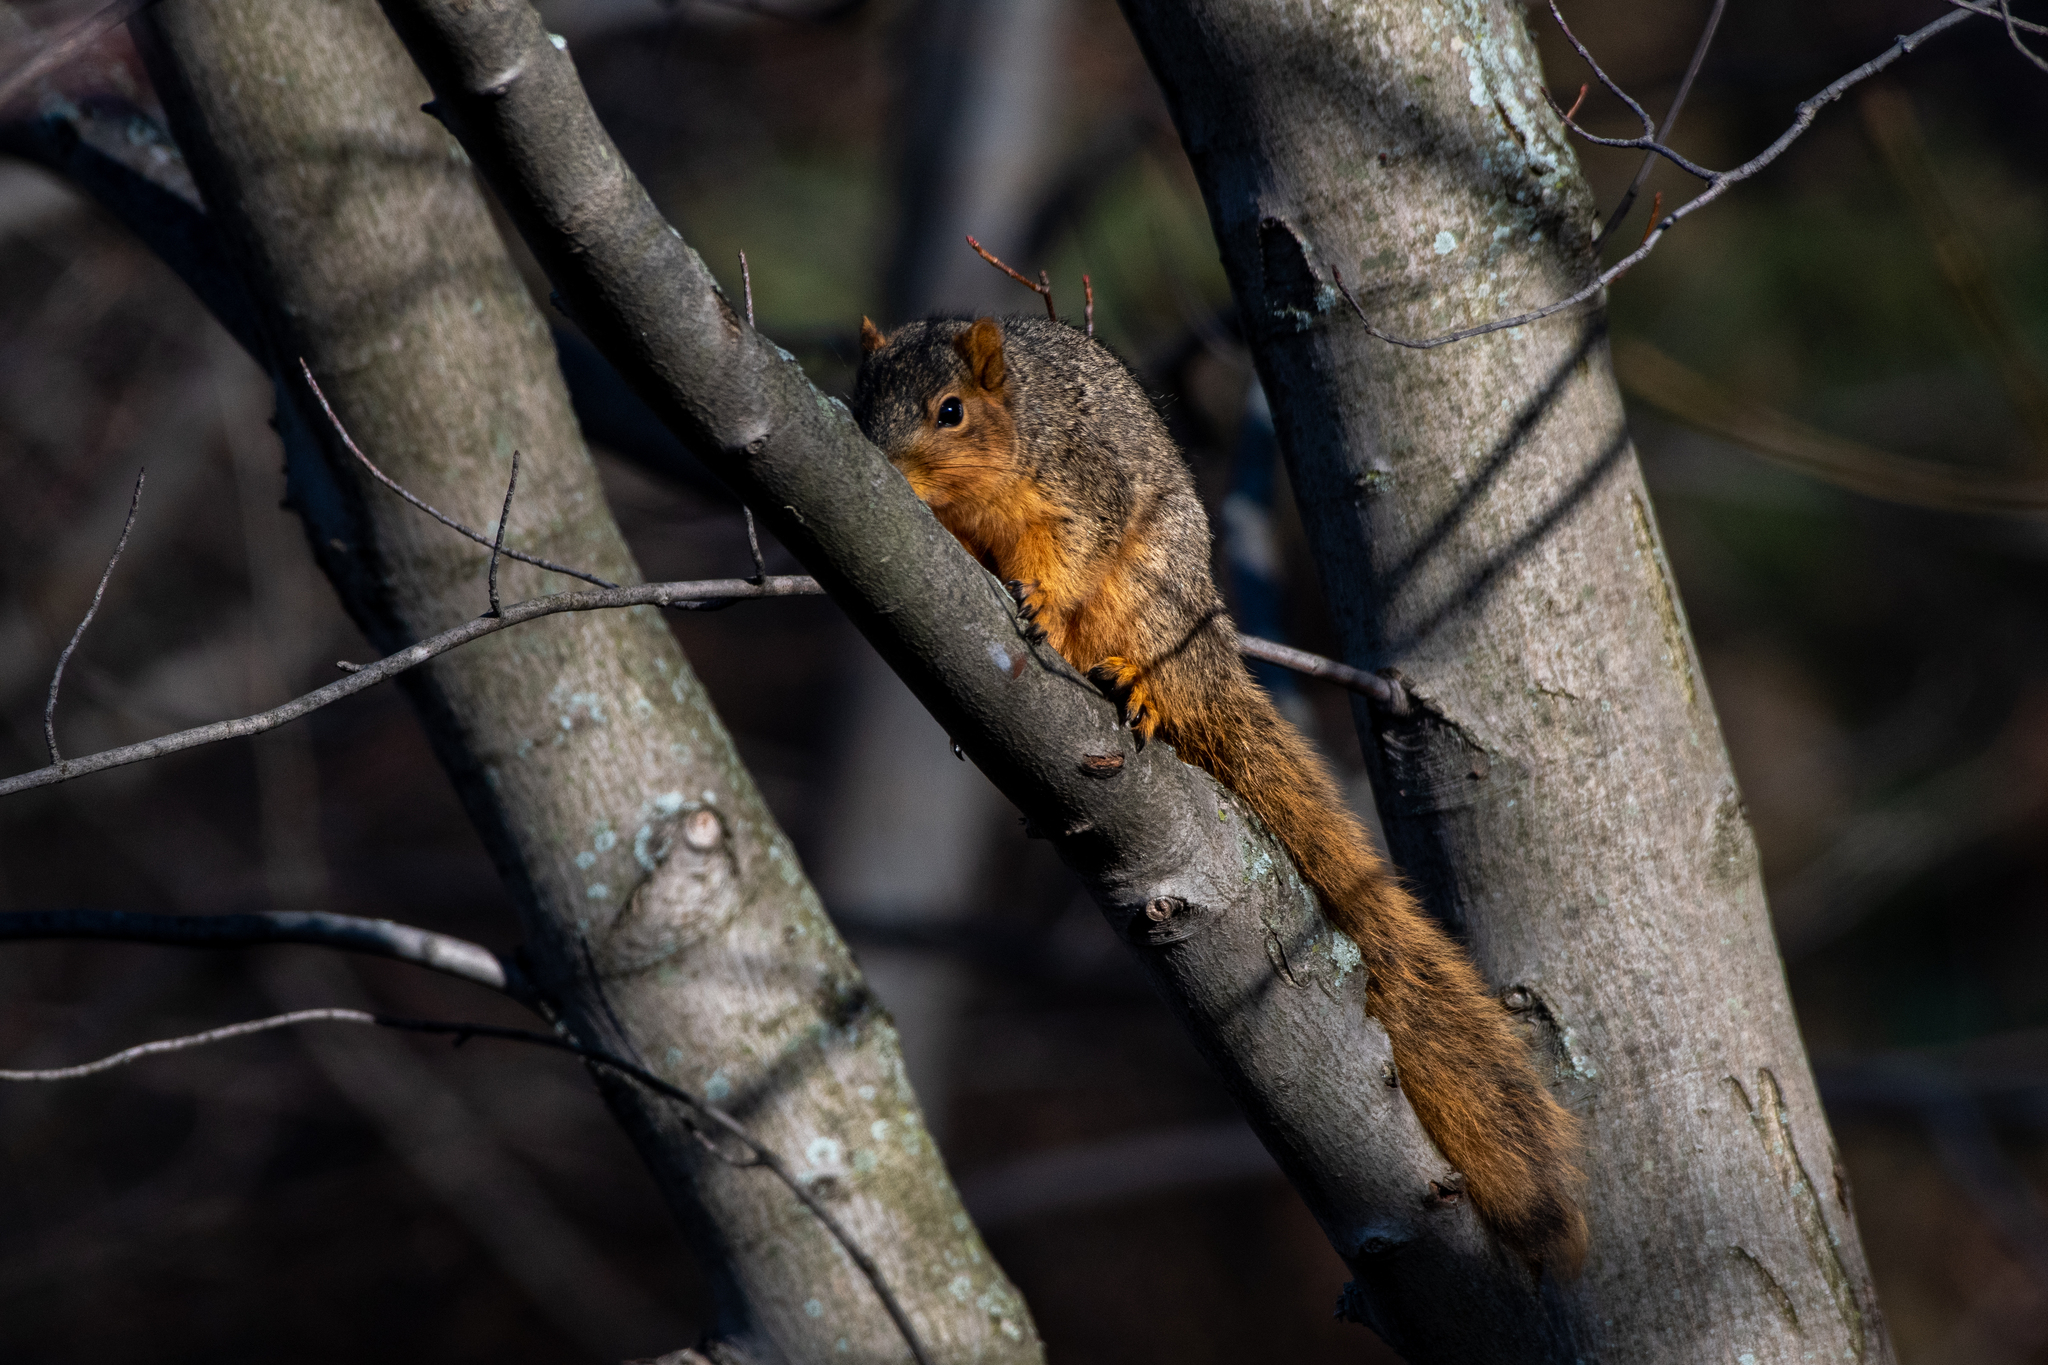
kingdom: Animalia
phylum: Chordata
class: Mammalia
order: Rodentia
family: Sciuridae
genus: Sciurus
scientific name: Sciurus niger
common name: Fox squirrel
